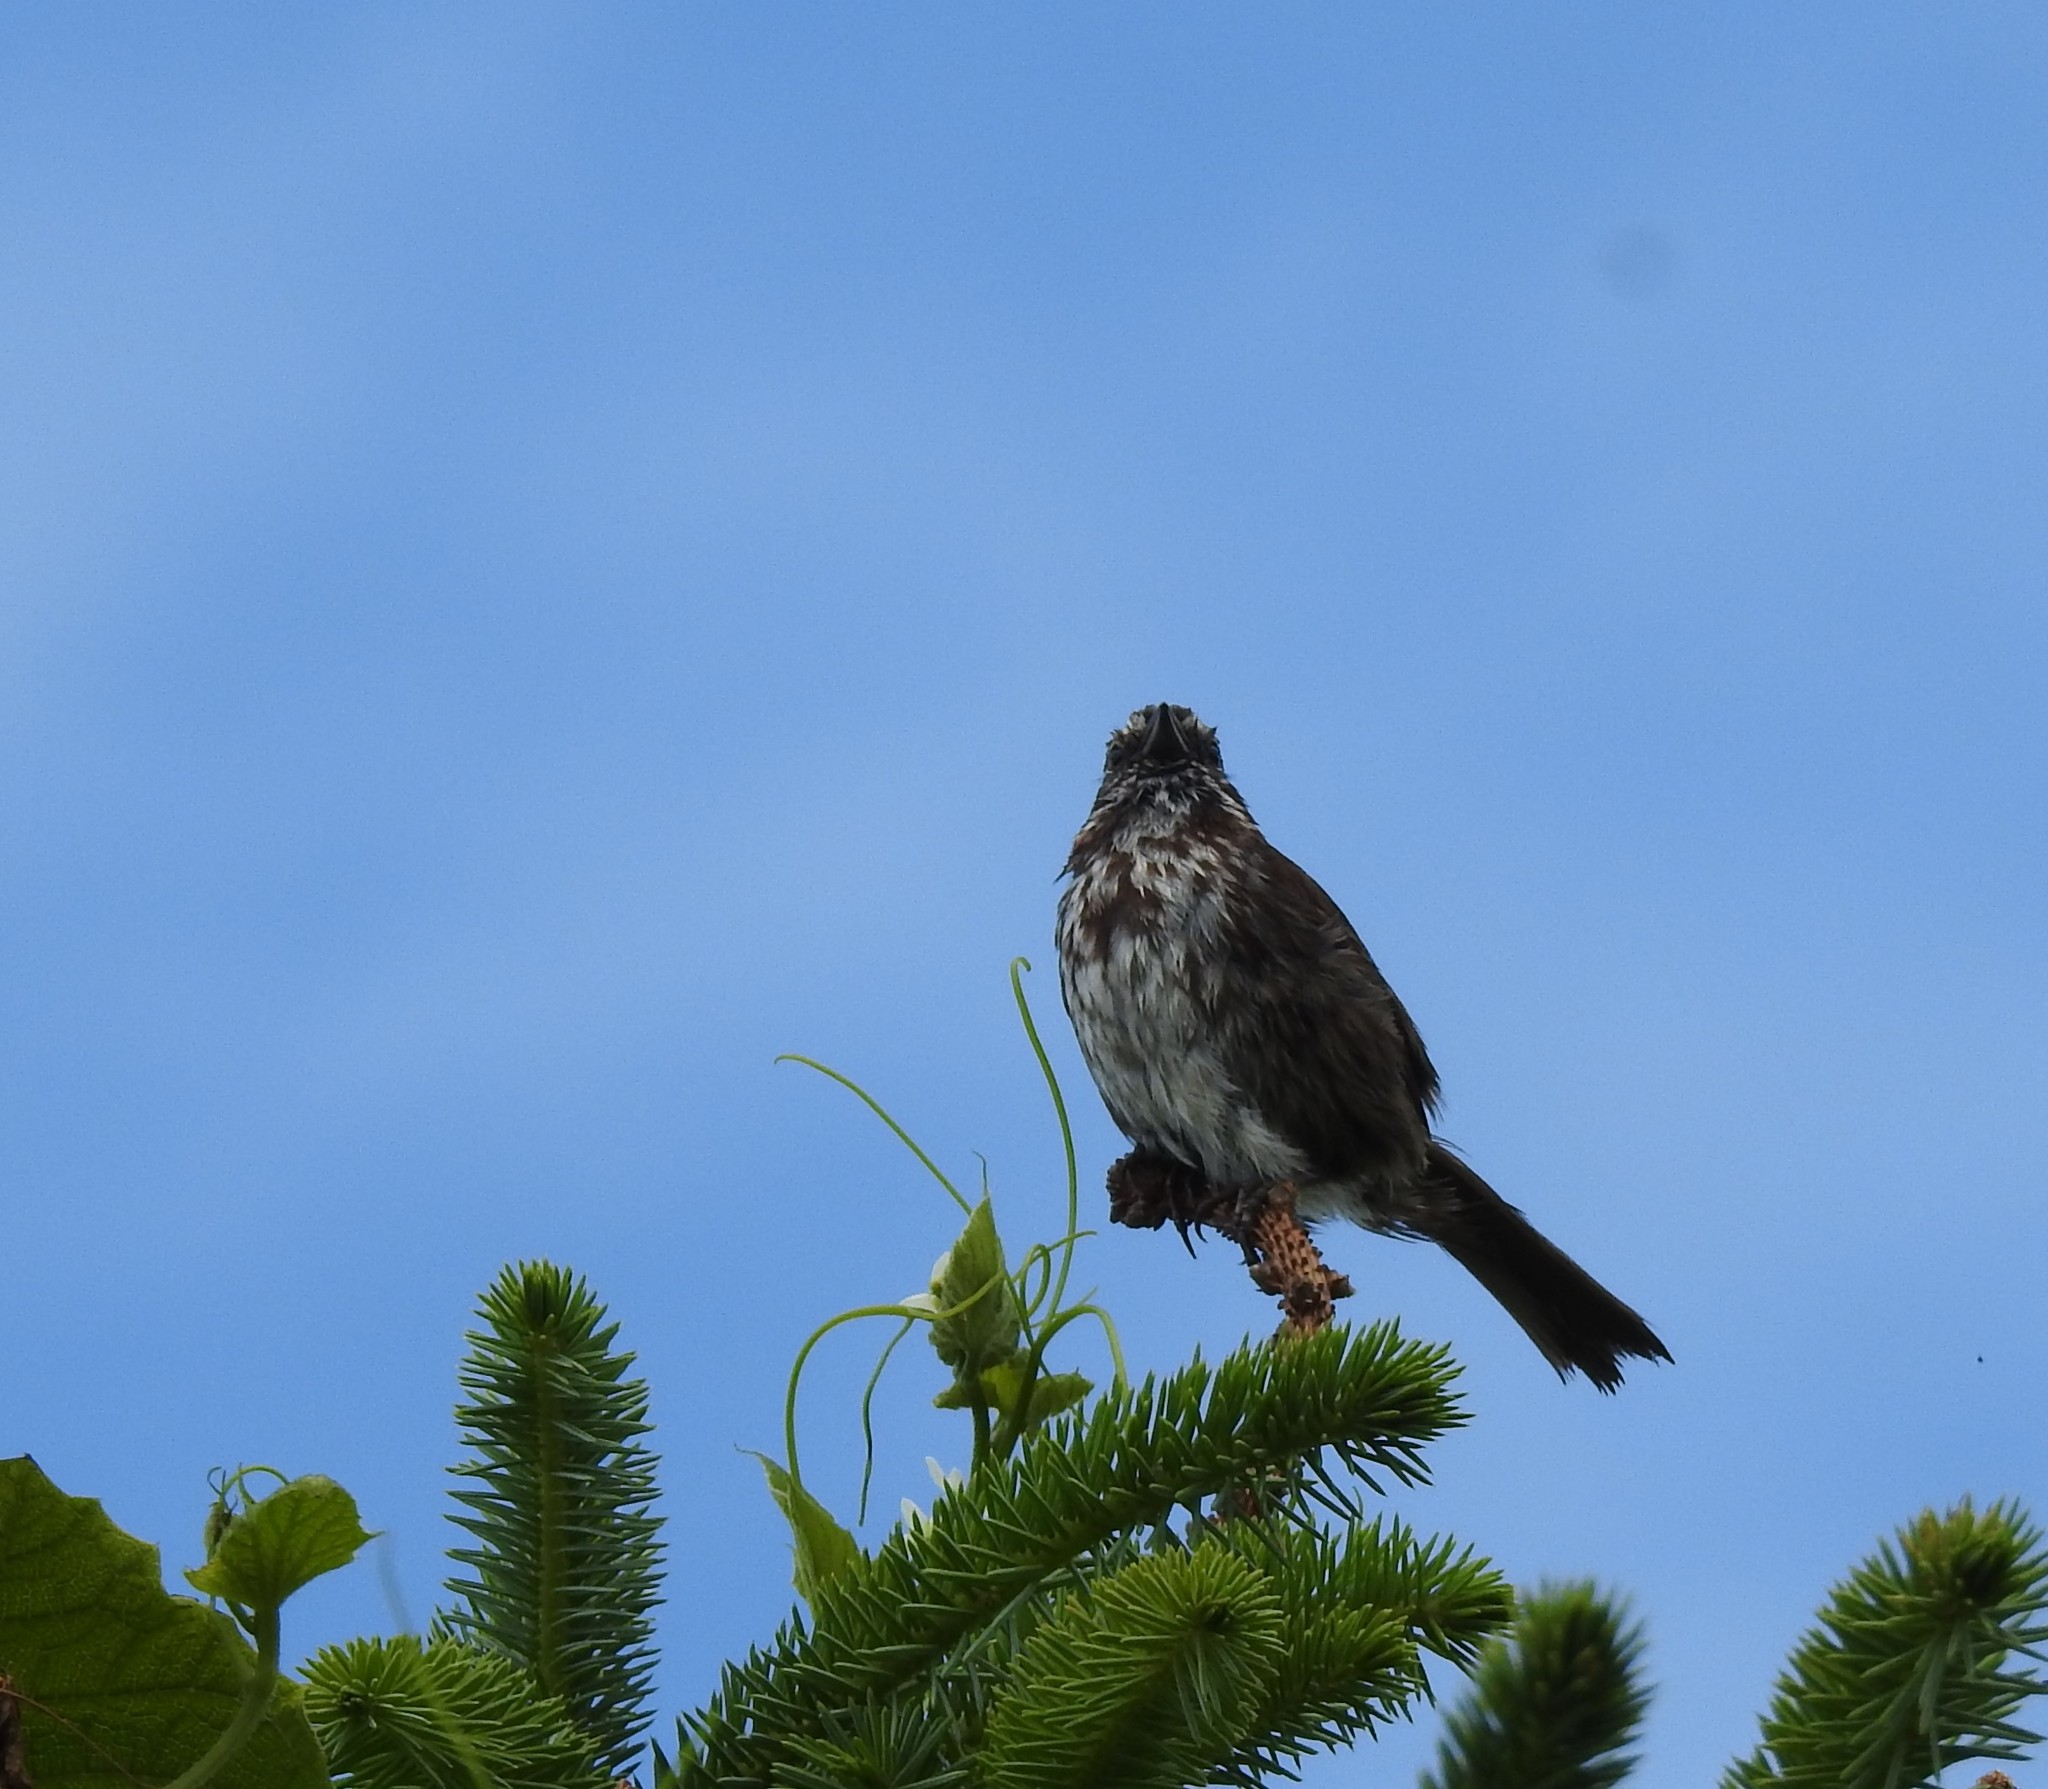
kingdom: Animalia
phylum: Chordata
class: Aves
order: Passeriformes
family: Passerellidae
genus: Melospiza
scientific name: Melospiza melodia
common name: Song sparrow
